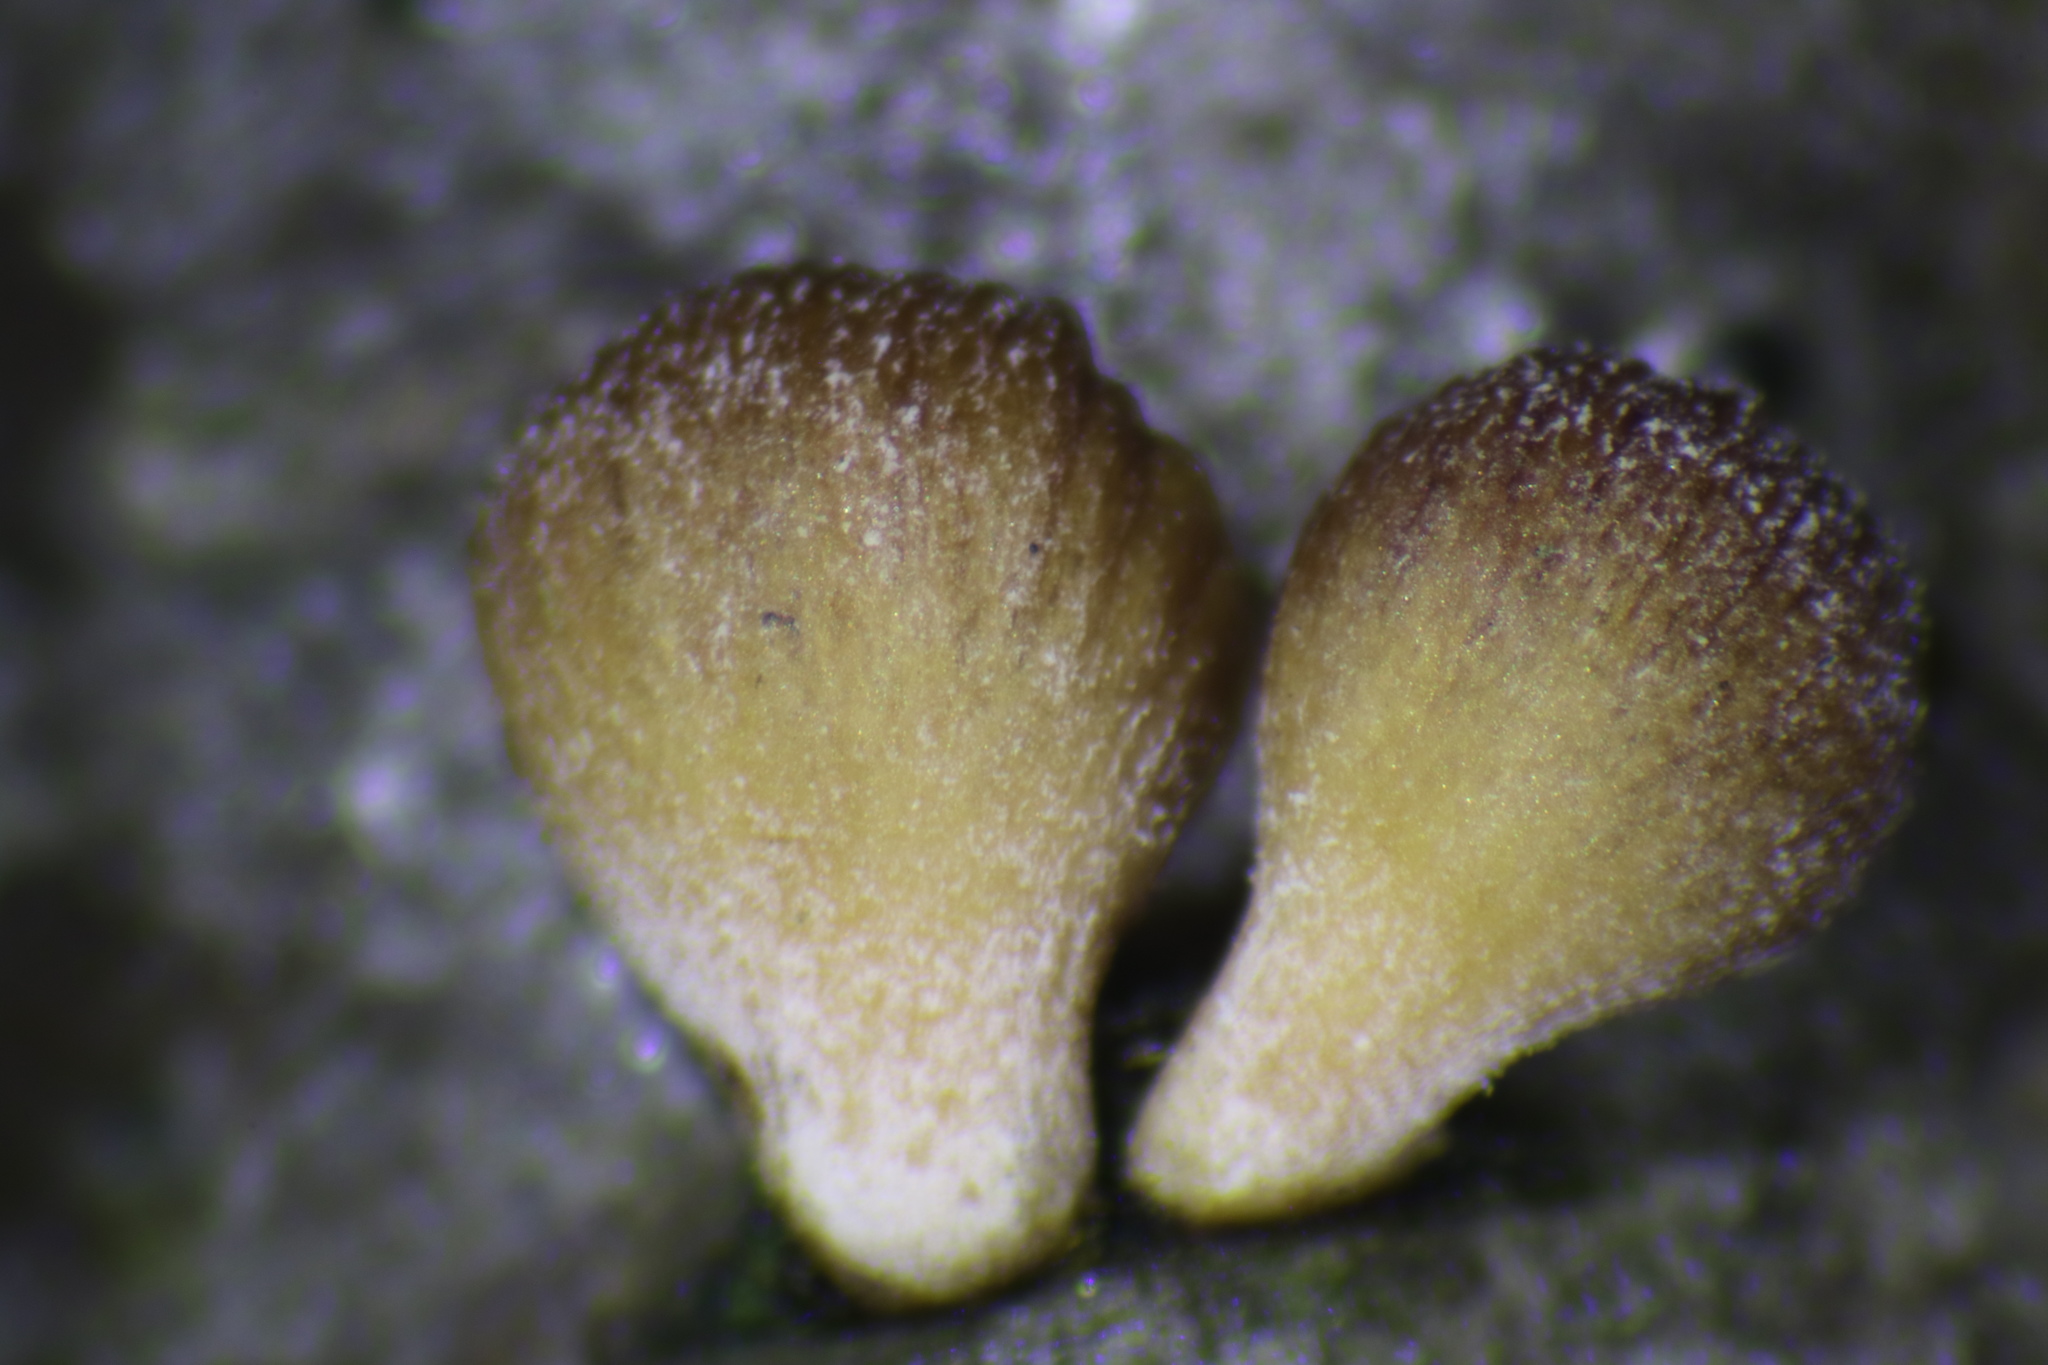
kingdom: Fungi
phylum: Basidiomycota
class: Agaricomycetes
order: Agaricales
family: Mycenaceae
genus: Tectella
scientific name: Tectella patellaris
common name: Veiled panus
